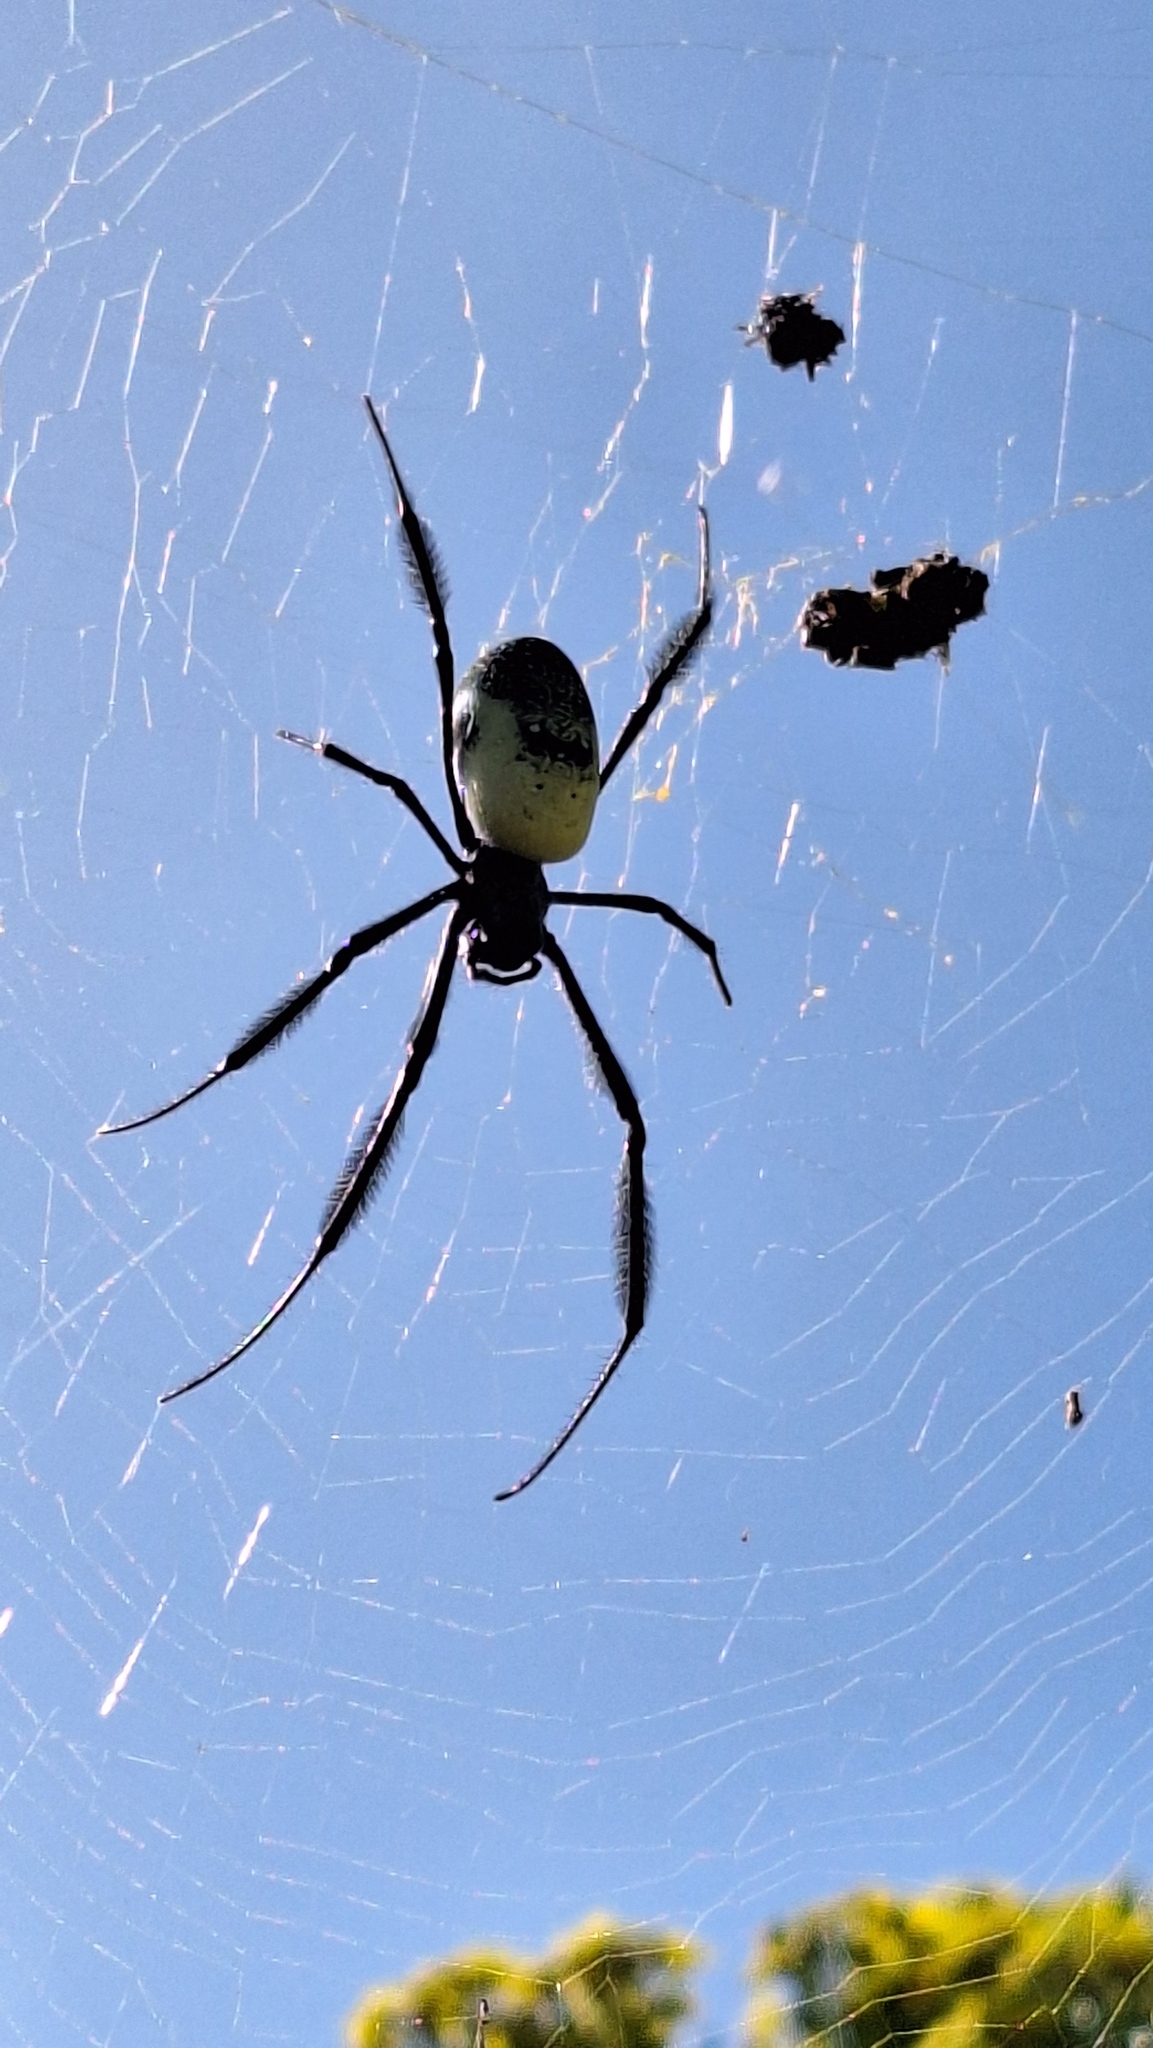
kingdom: Animalia
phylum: Arthropoda
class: Arachnida
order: Araneae
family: Araneidae
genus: Trichonephila
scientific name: Trichonephila fenestrata
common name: Hairy golden orb weaver
